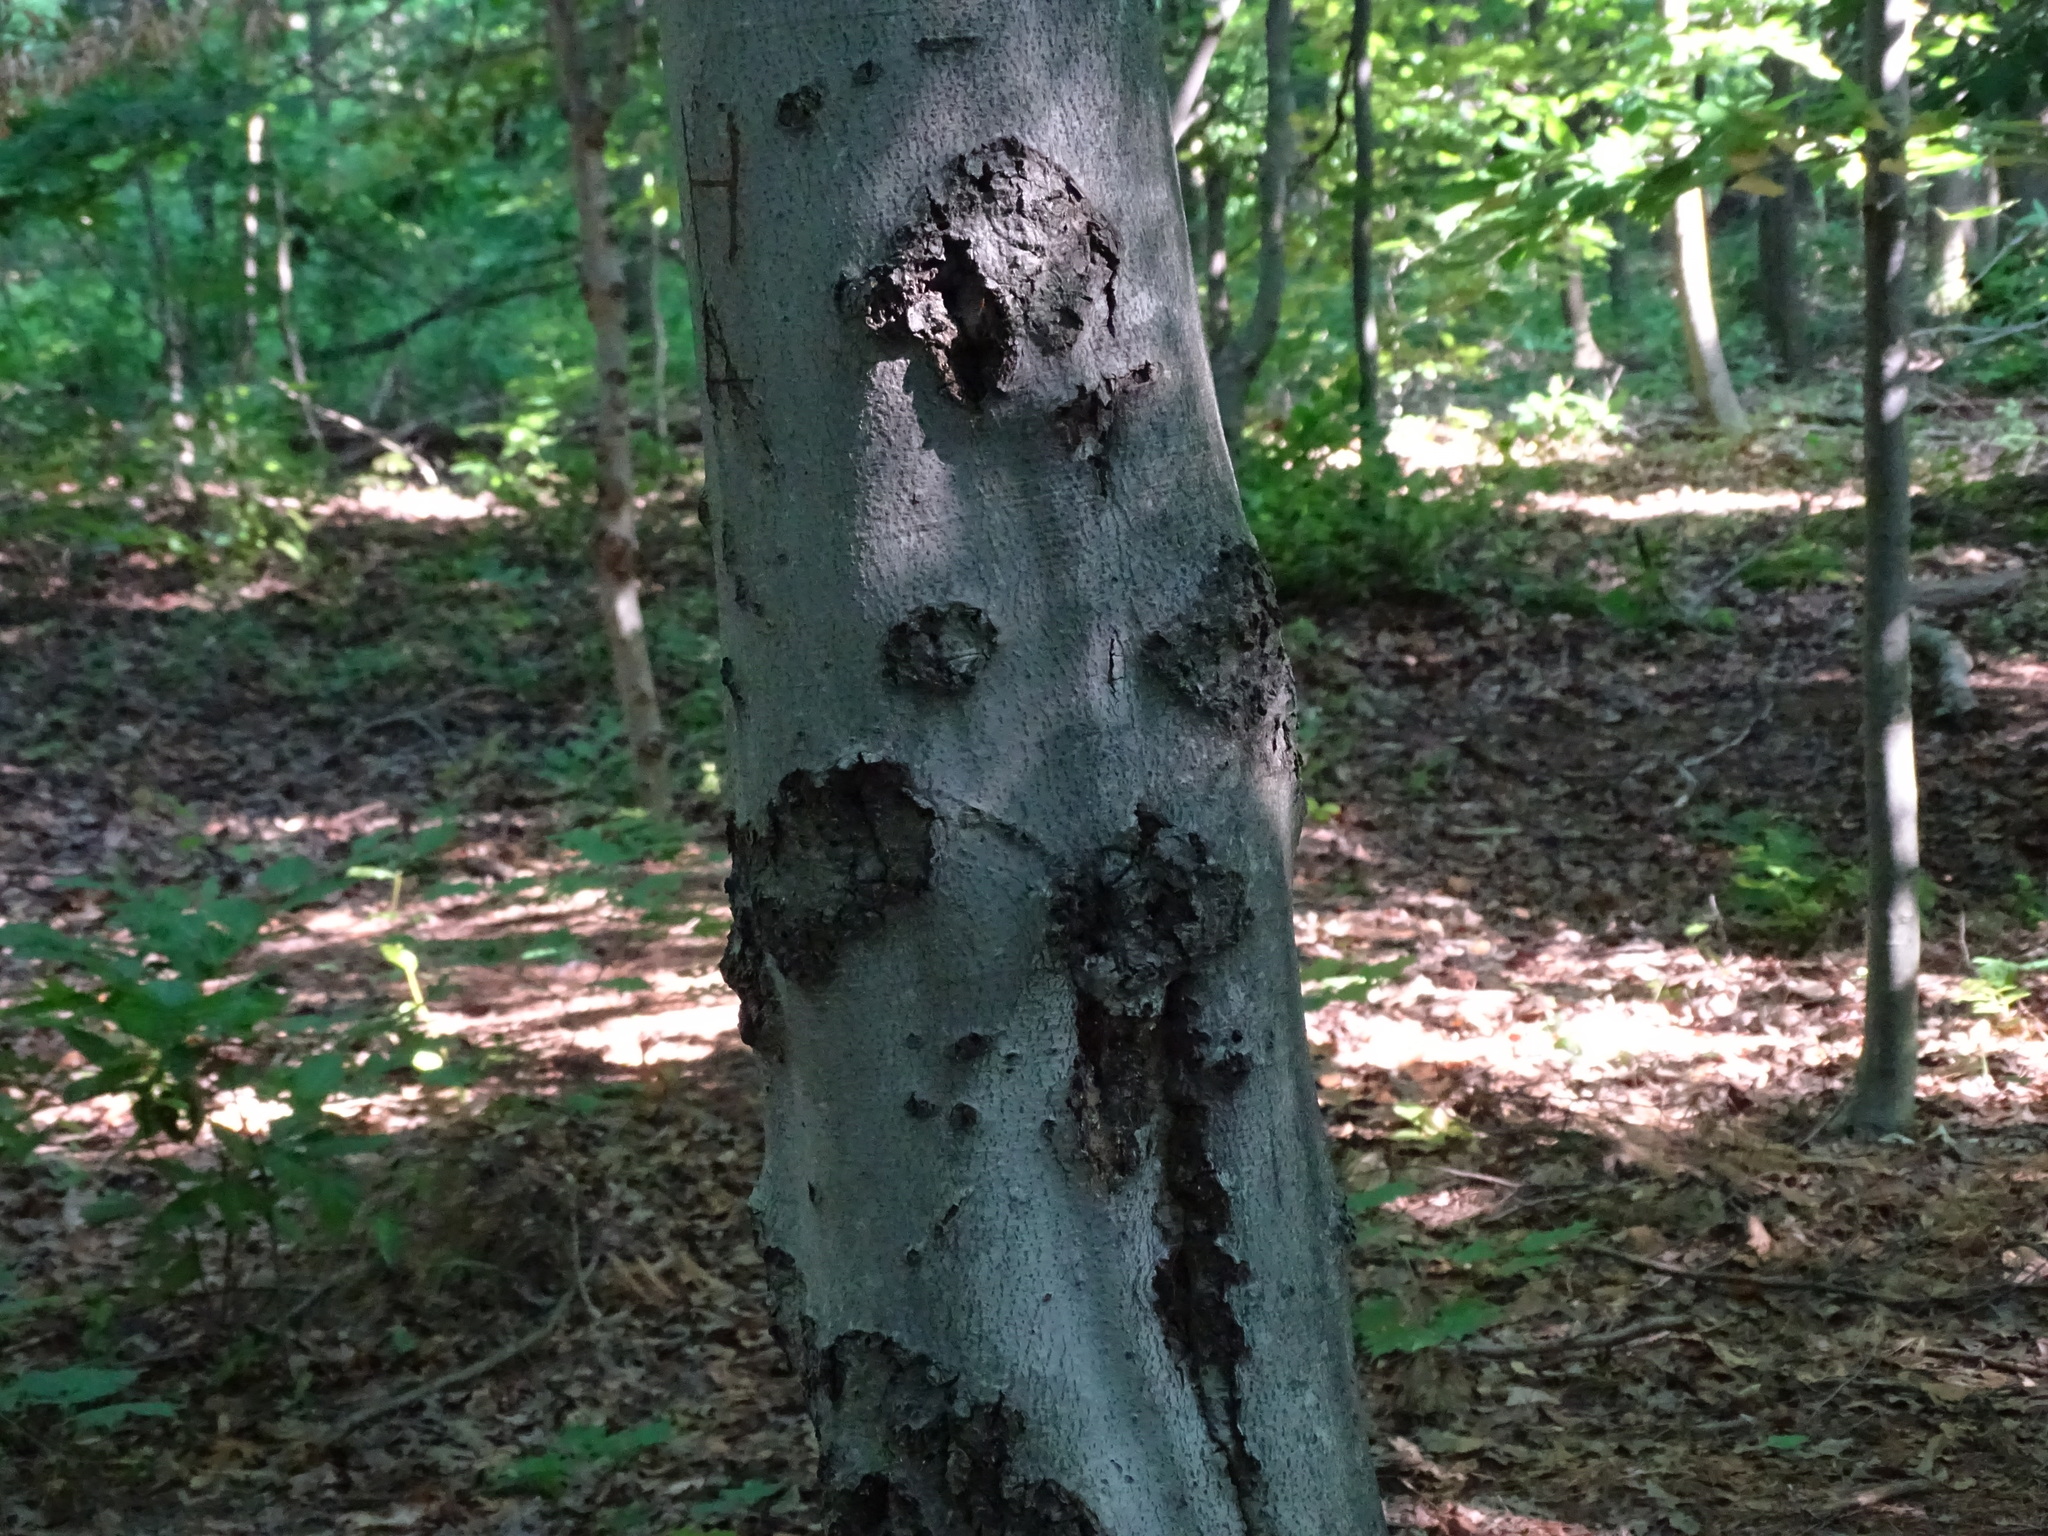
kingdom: Plantae
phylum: Tracheophyta
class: Magnoliopsida
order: Fagales
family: Fagaceae
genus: Fagus
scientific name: Fagus grandifolia
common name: American beech
